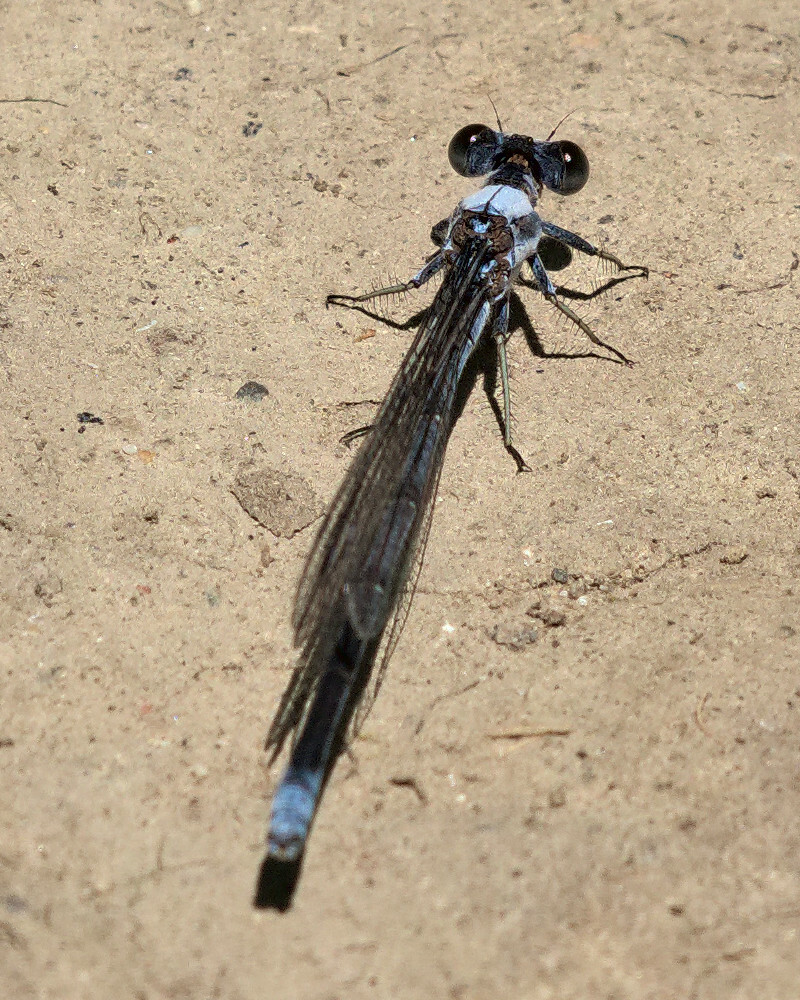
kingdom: Animalia
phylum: Arthropoda
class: Insecta
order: Odonata
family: Coenagrionidae
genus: Argia
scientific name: Argia moesta
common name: Powdered dancer
